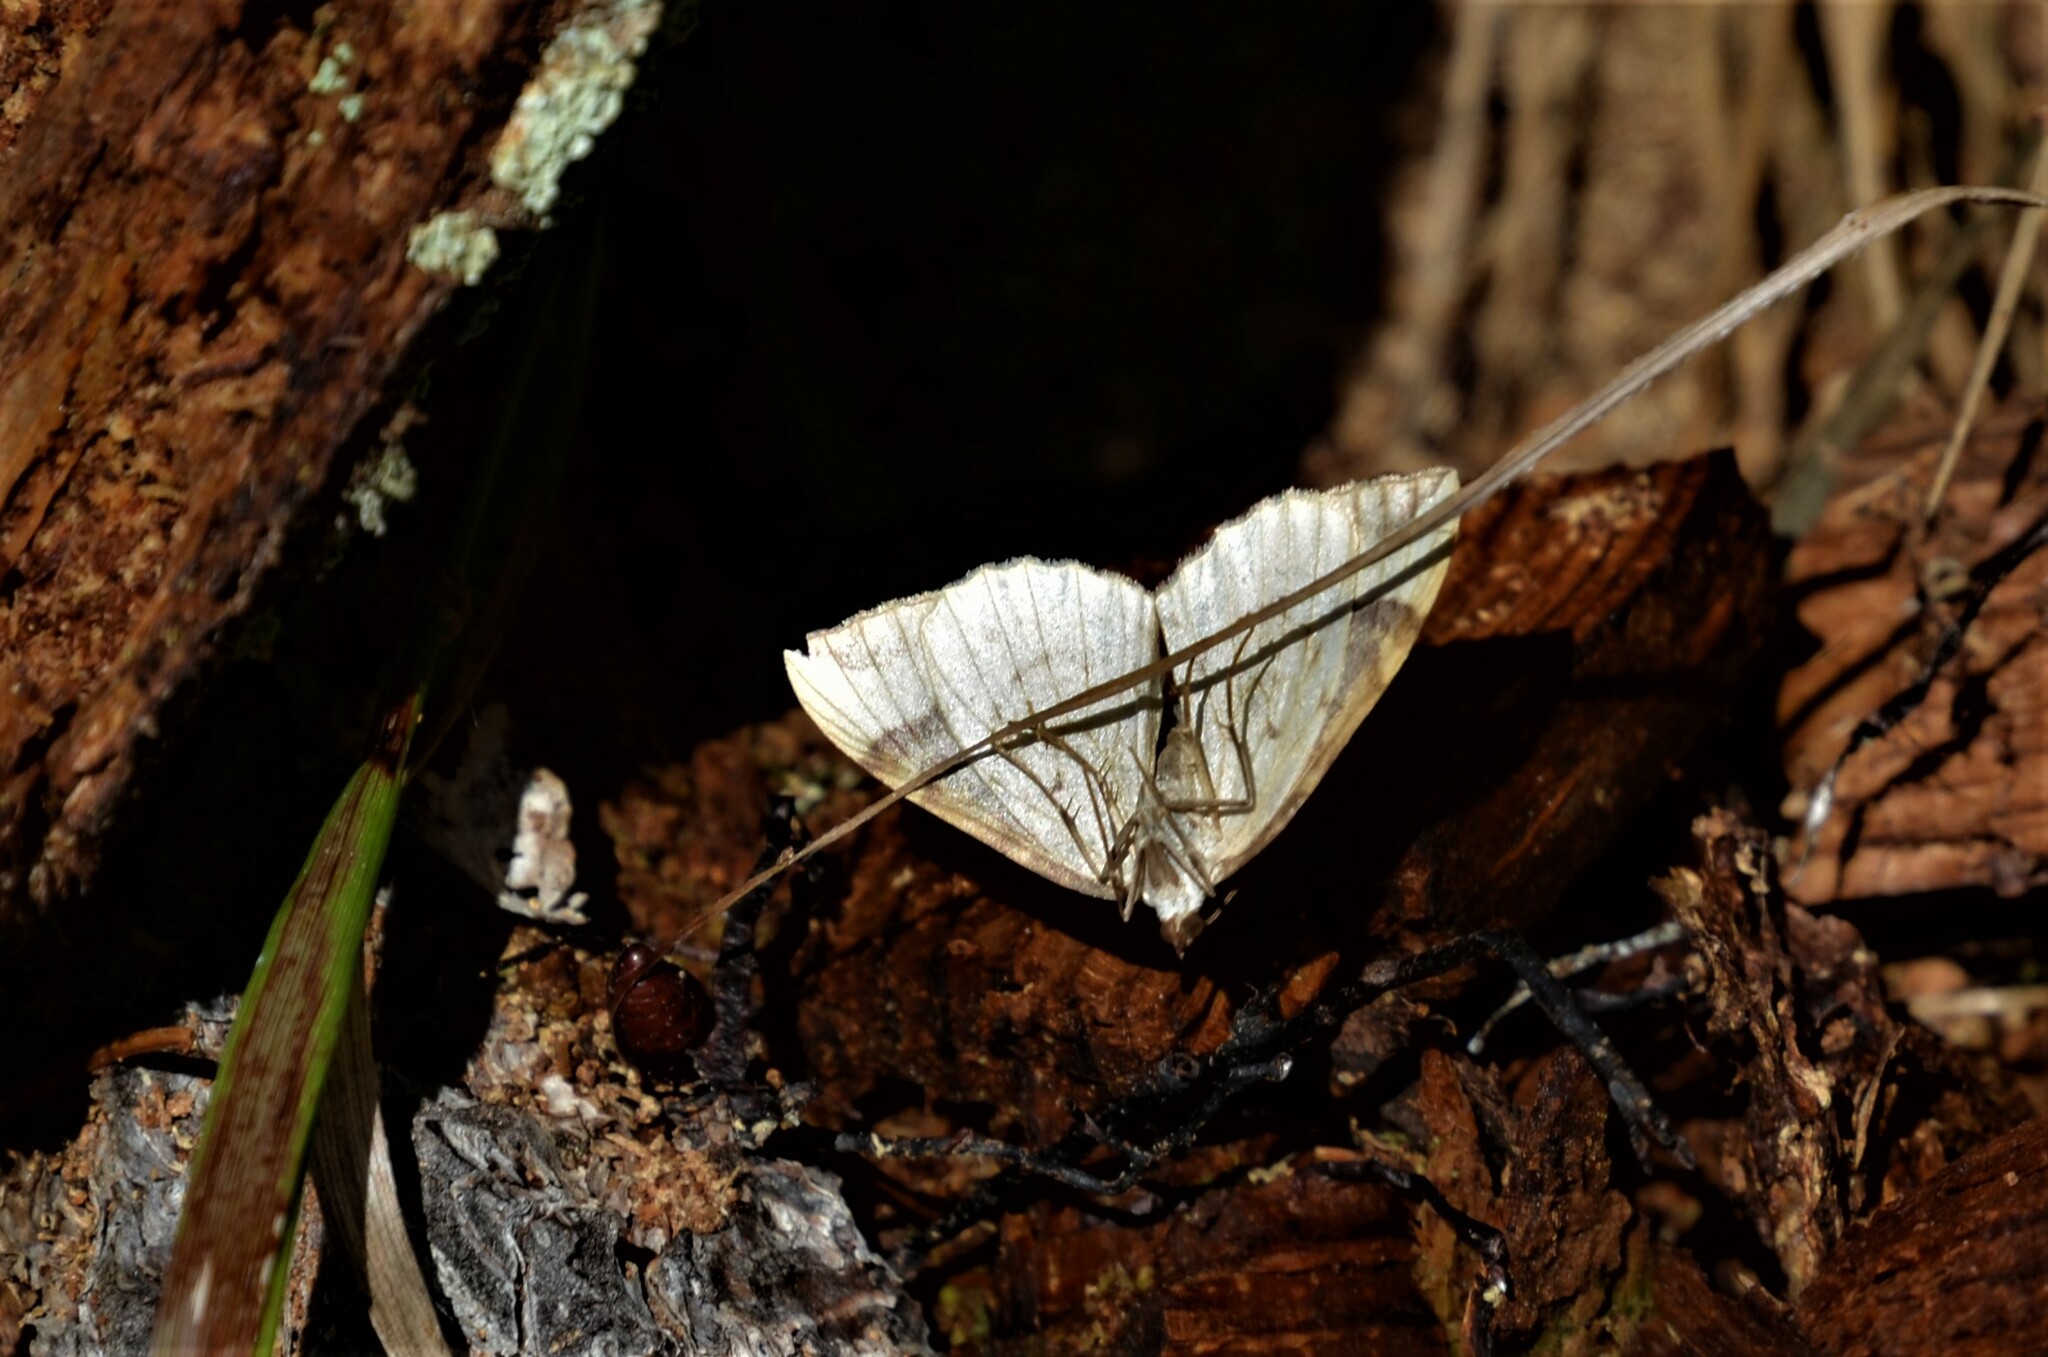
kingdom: Animalia
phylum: Arthropoda
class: Insecta
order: Lepidoptera
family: Geometridae
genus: Eulithis
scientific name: Eulithis populata
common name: Northern spinach
